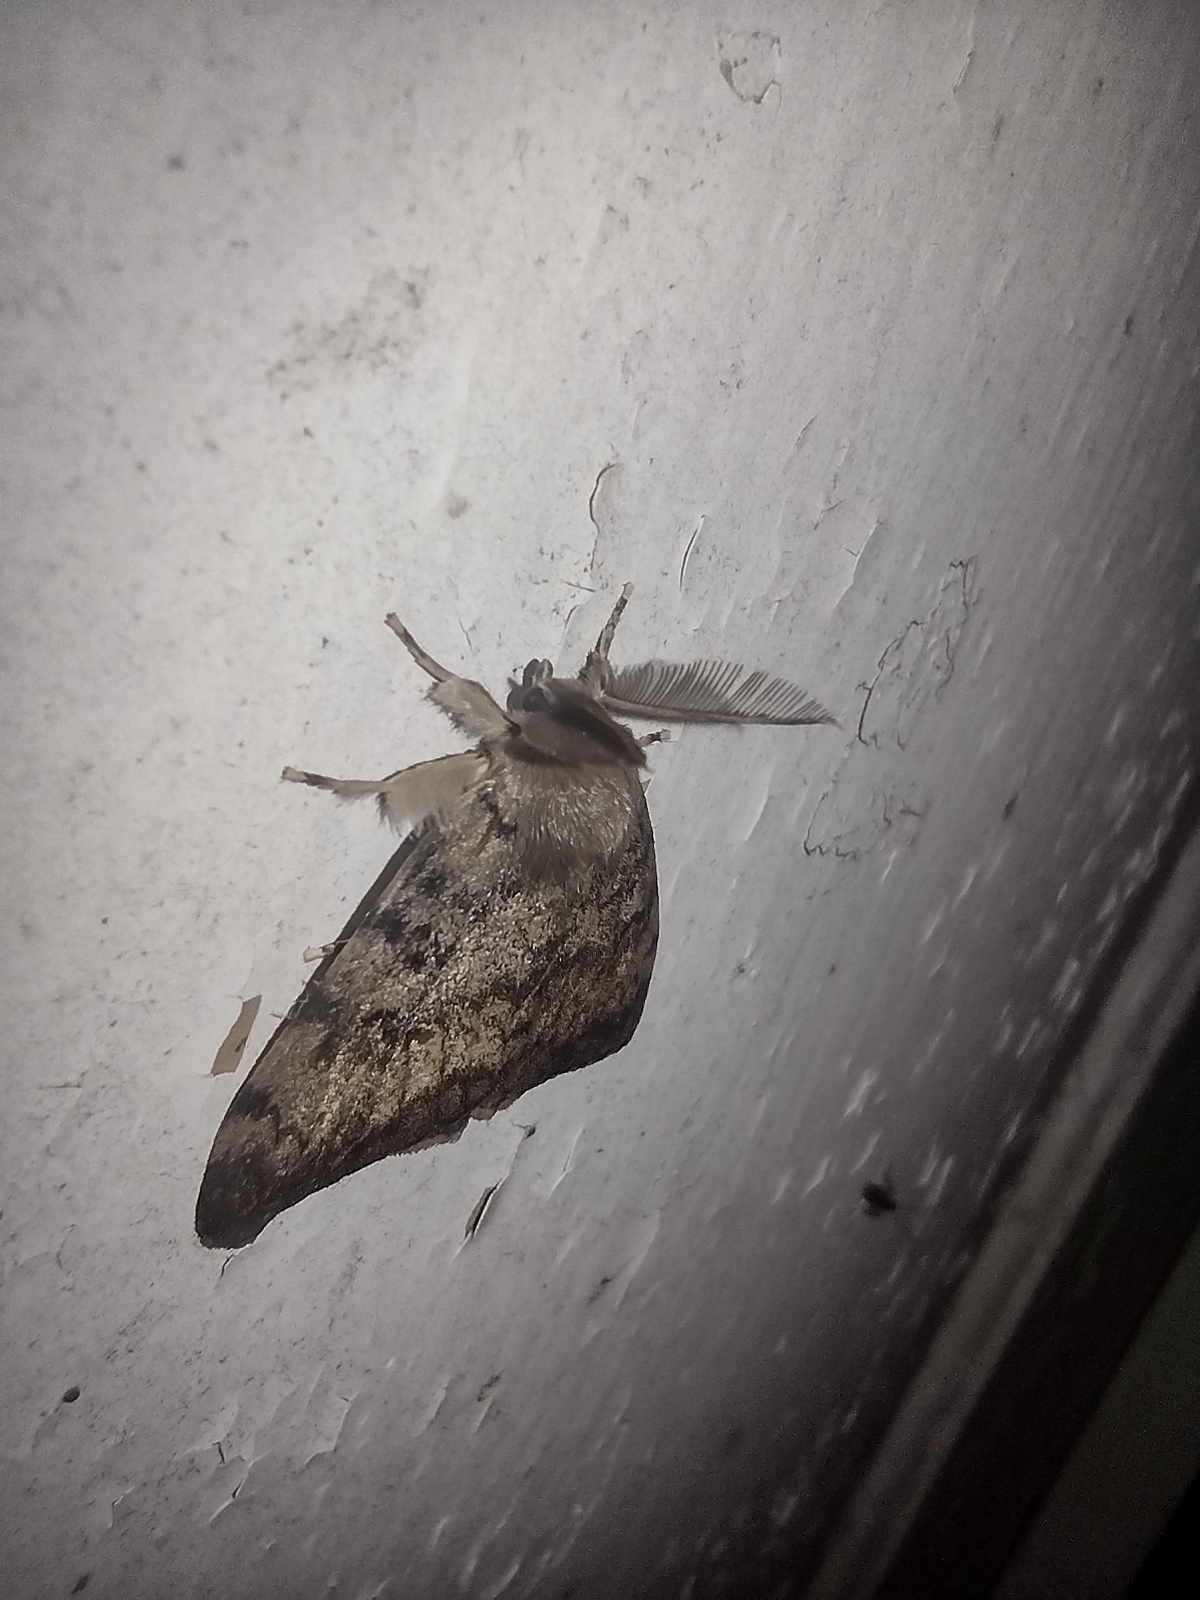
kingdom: Animalia
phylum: Arthropoda
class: Insecta
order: Lepidoptera
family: Erebidae
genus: Lymantria
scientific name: Lymantria dispar
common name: Gypsy moth
